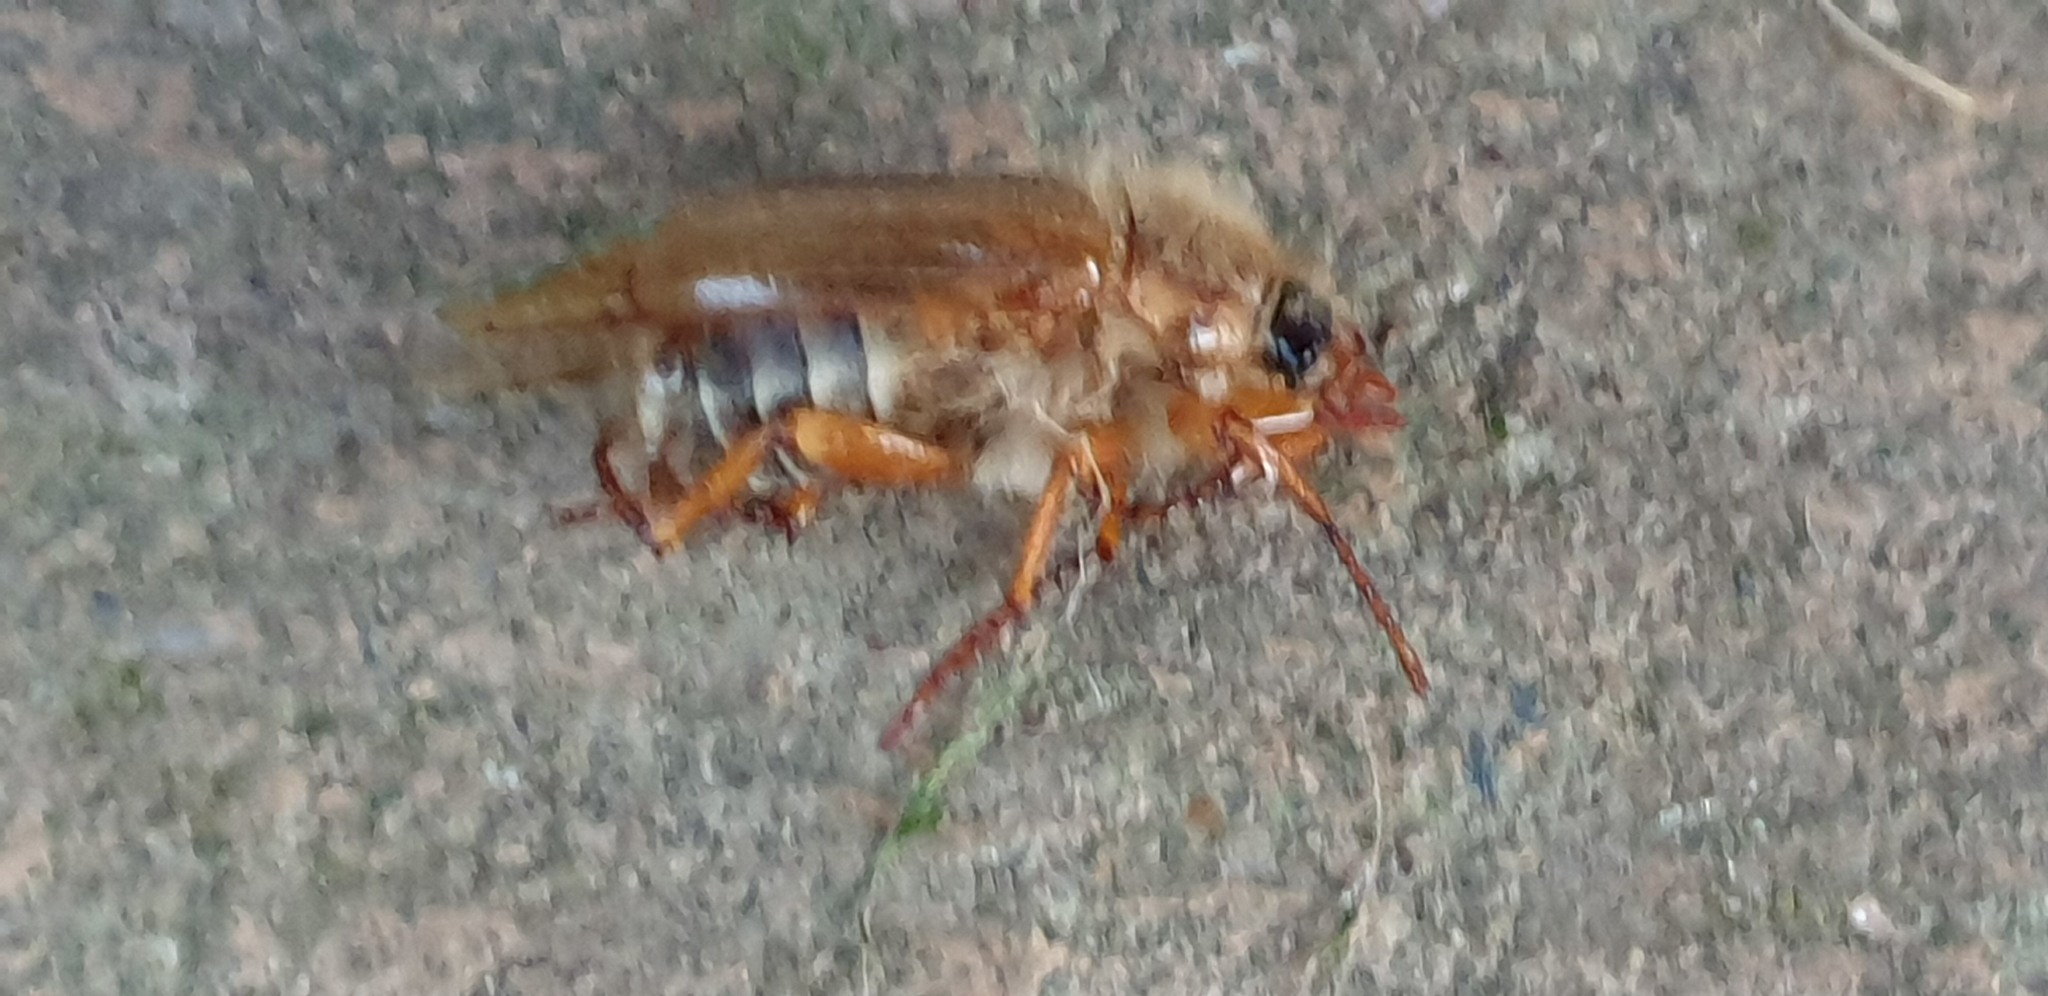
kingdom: Animalia
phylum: Arthropoda
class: Insecta
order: Coleoptera
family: Scarabaeidae
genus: Amphimallon
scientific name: Amphimallon solstitiale
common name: Summer chafer
